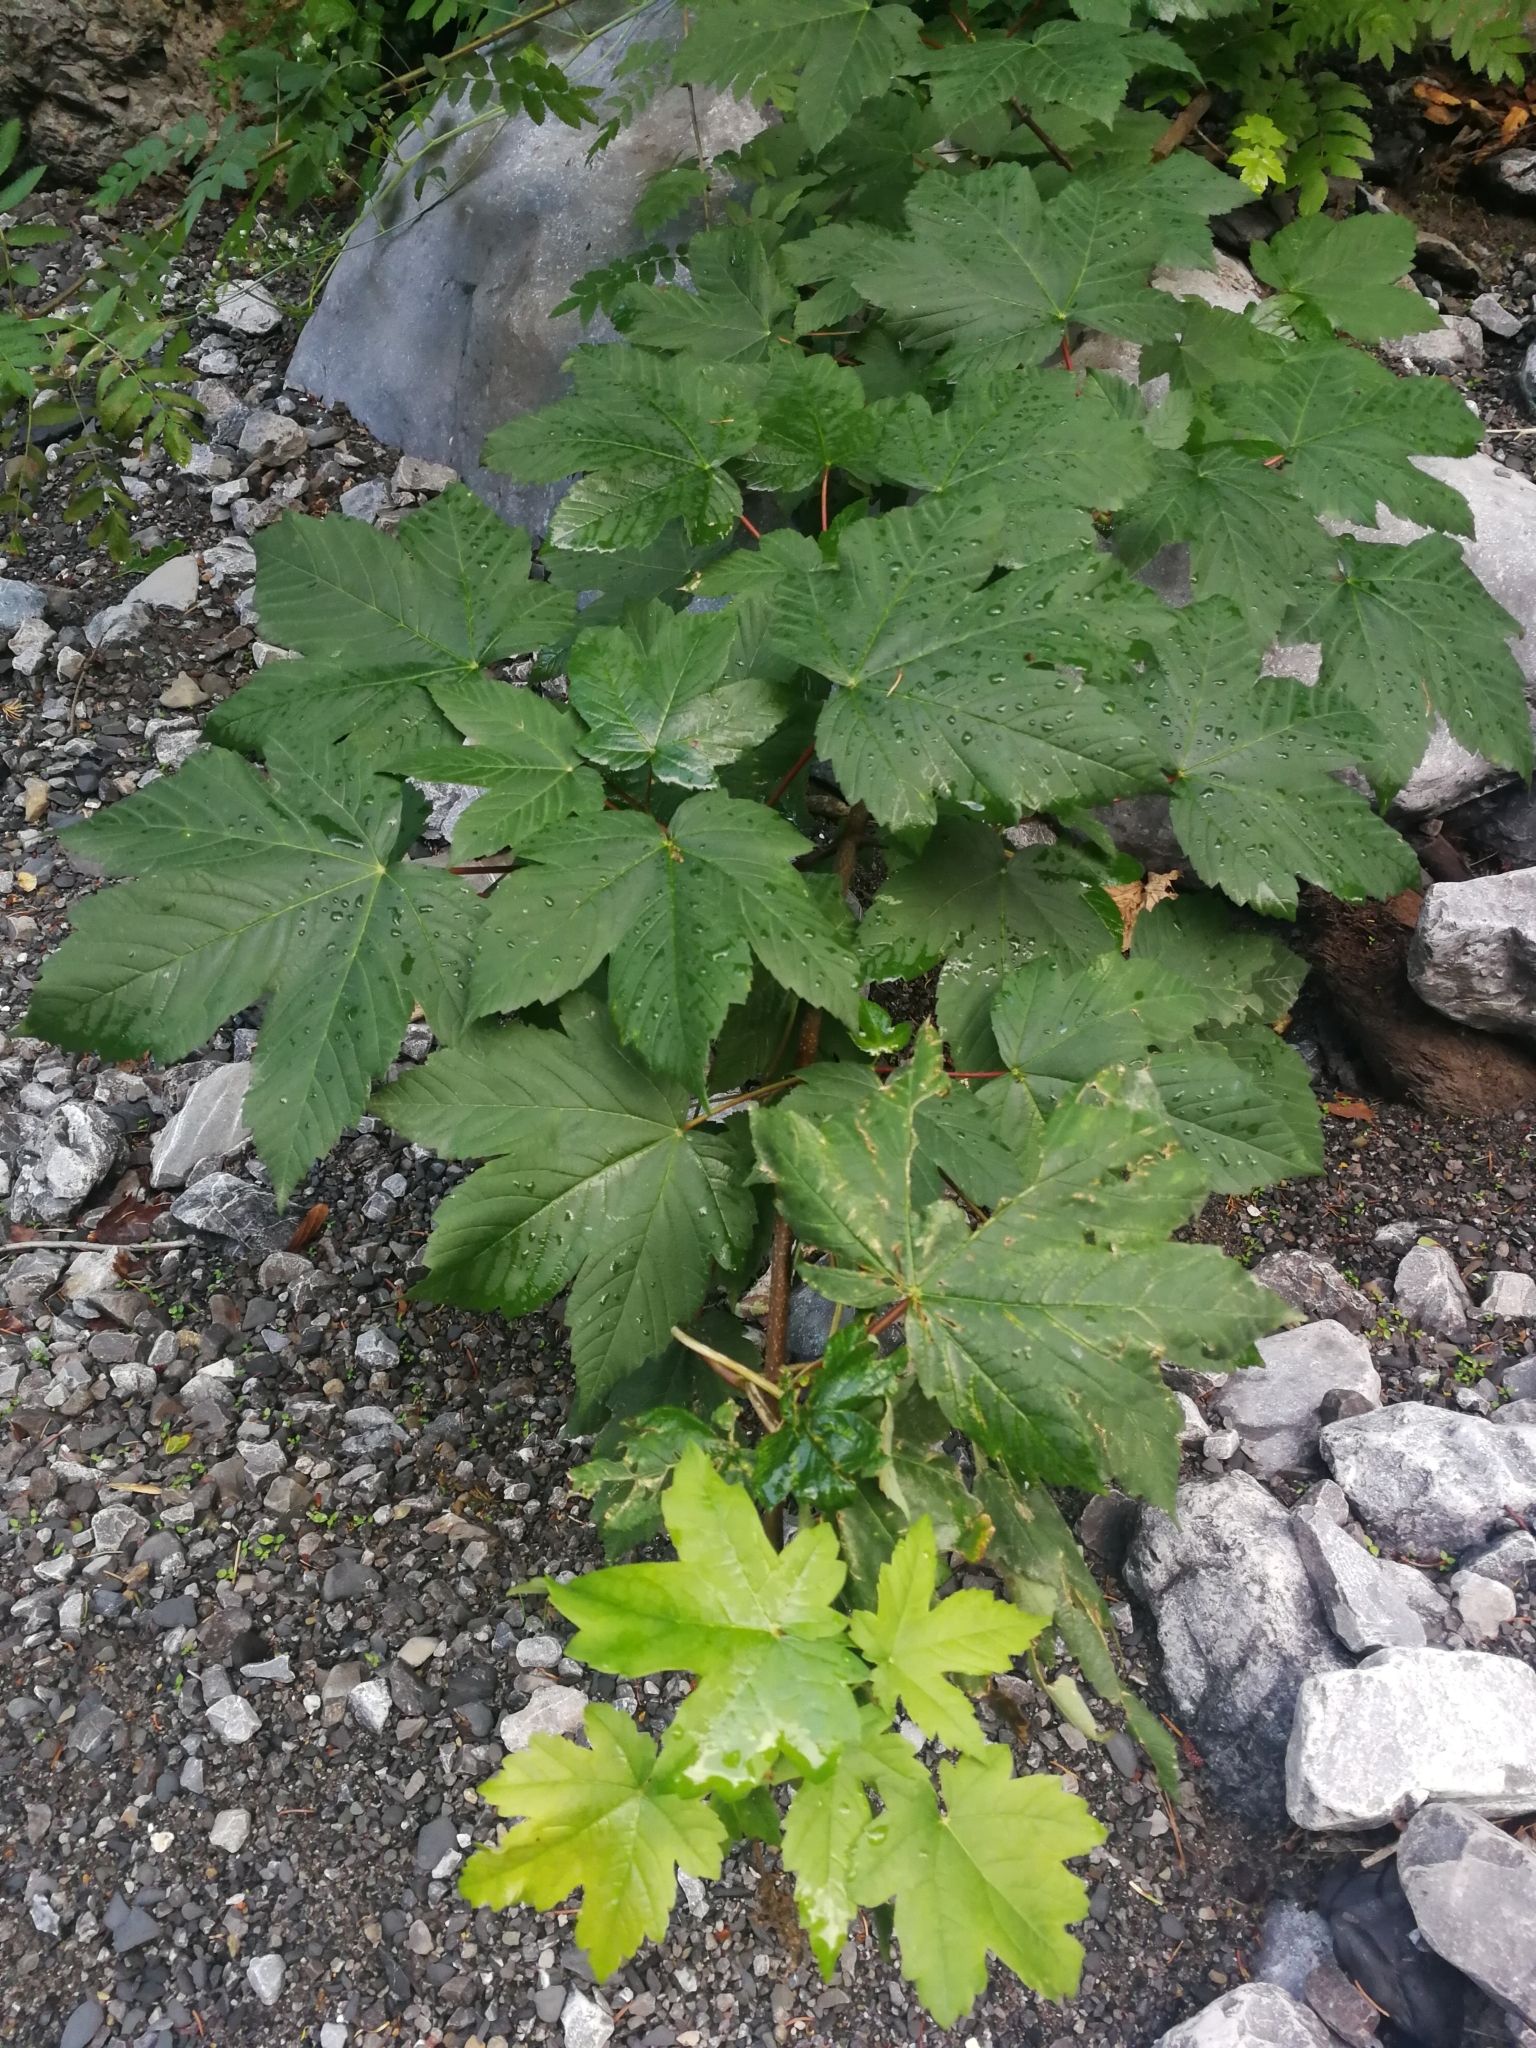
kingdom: Plantae
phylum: Tracheophyta
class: Magnoliopsida
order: Sapindales
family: Sapindaceae
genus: Acer
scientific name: Acer pseudoplatanus
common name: Sycamore
